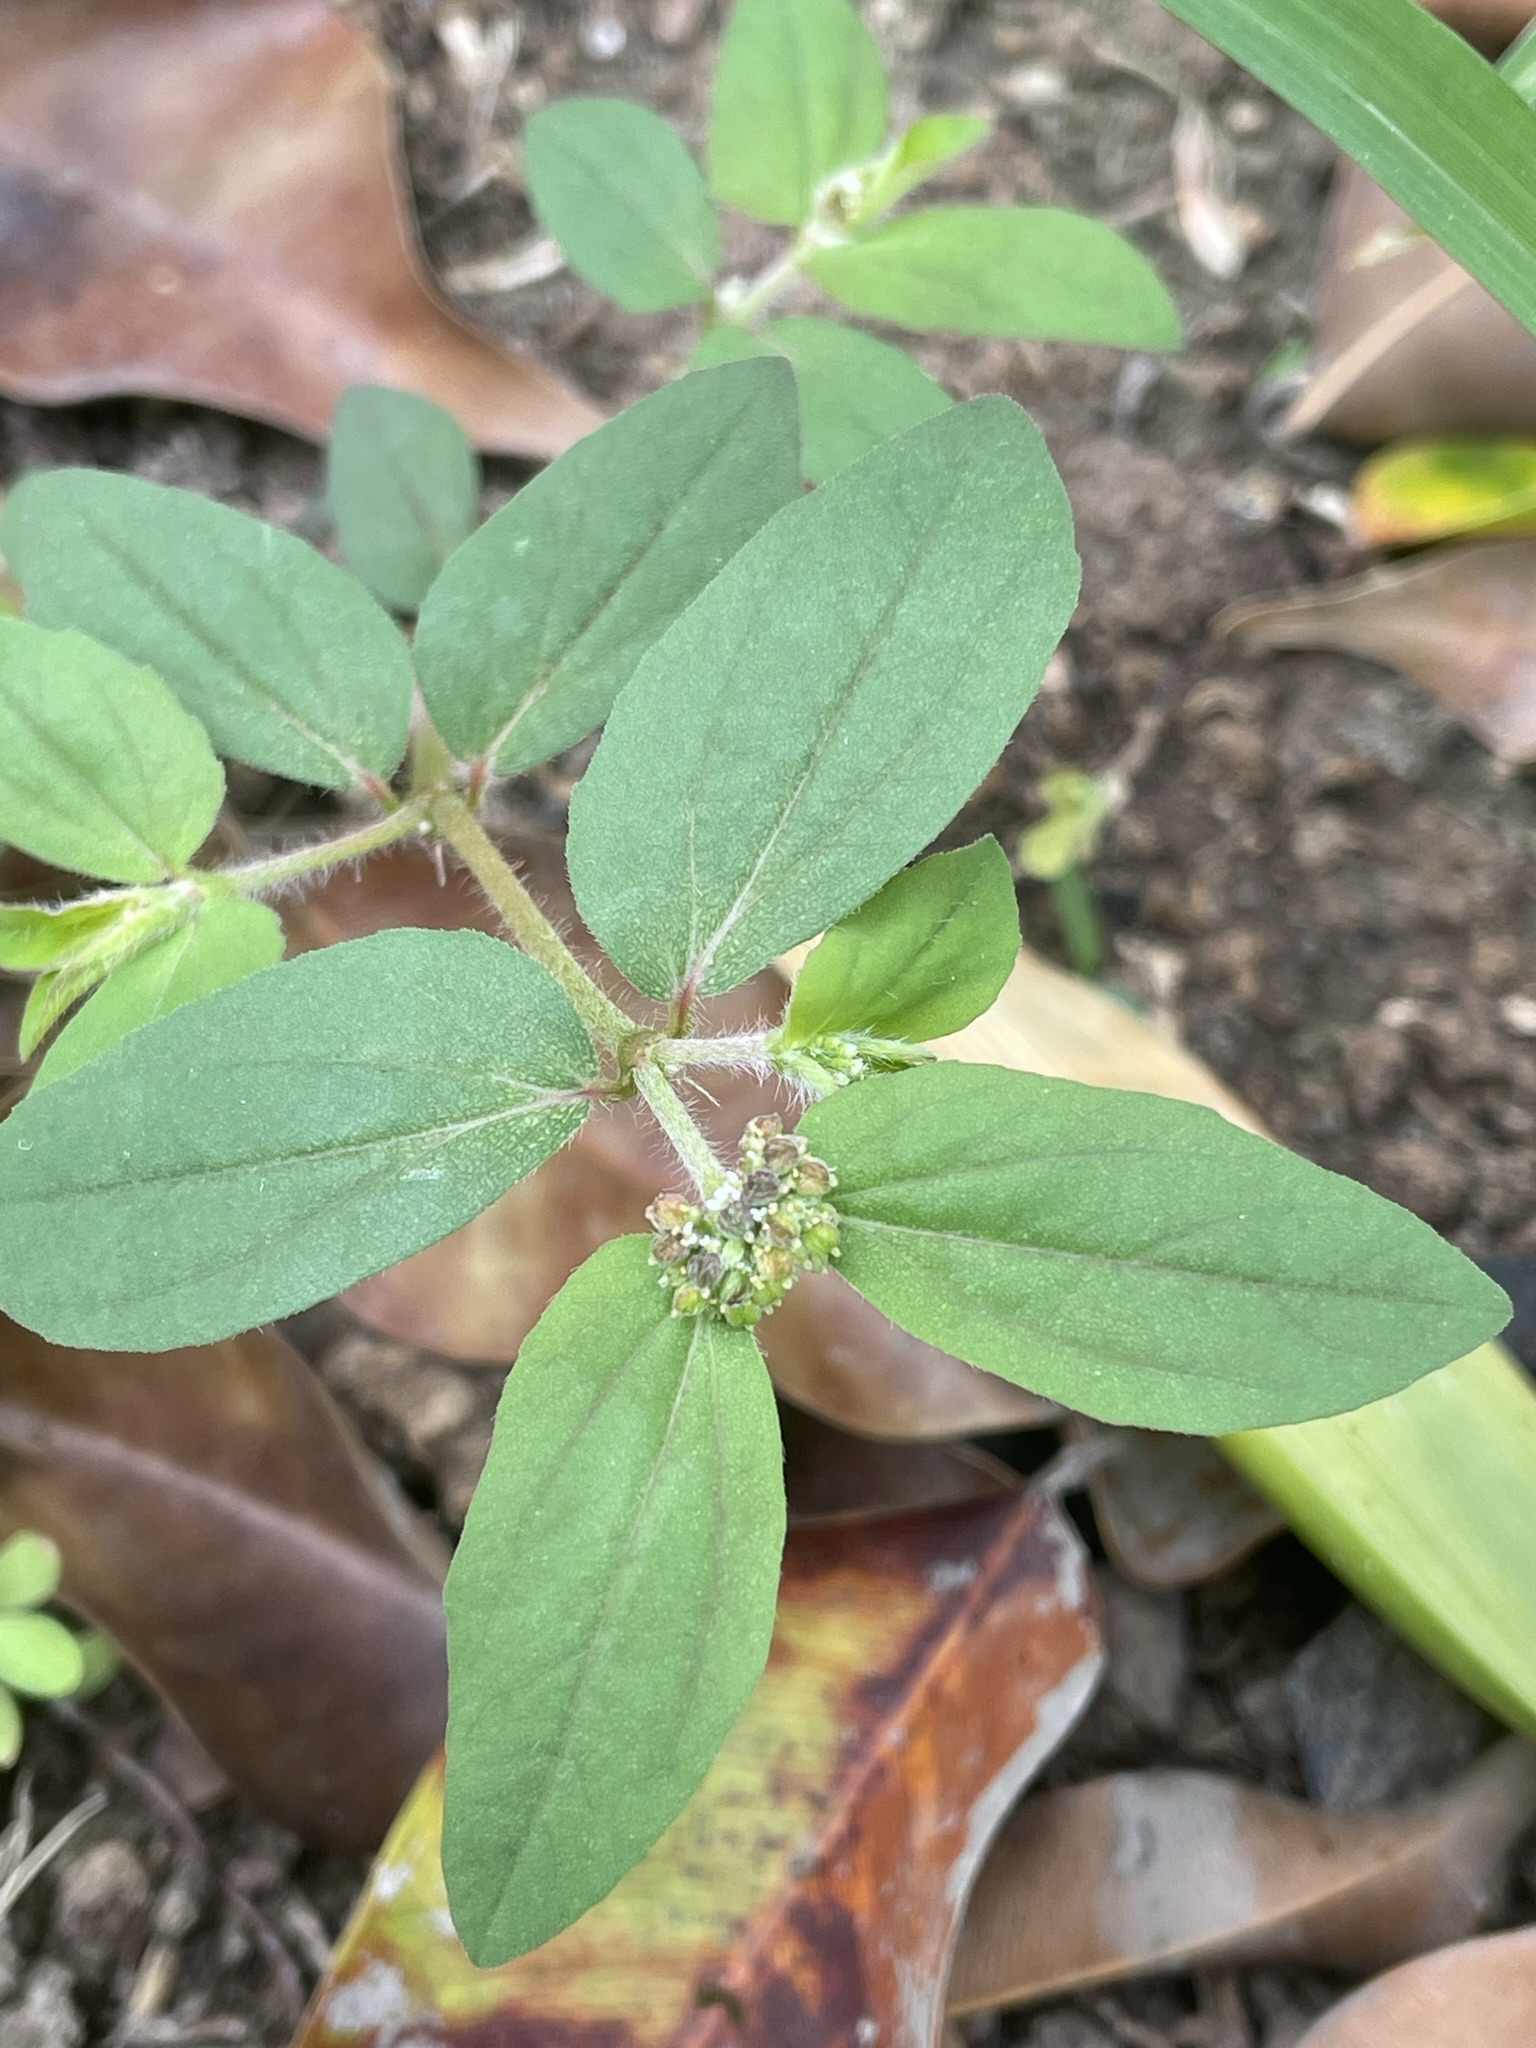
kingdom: Plantae
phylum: Tracheophyta
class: Magnoliopsida
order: Malpighiales
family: Euphorbiaceae
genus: Euphorbia
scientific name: Euphorbia ophthalmica
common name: Florida hammock sandmat
